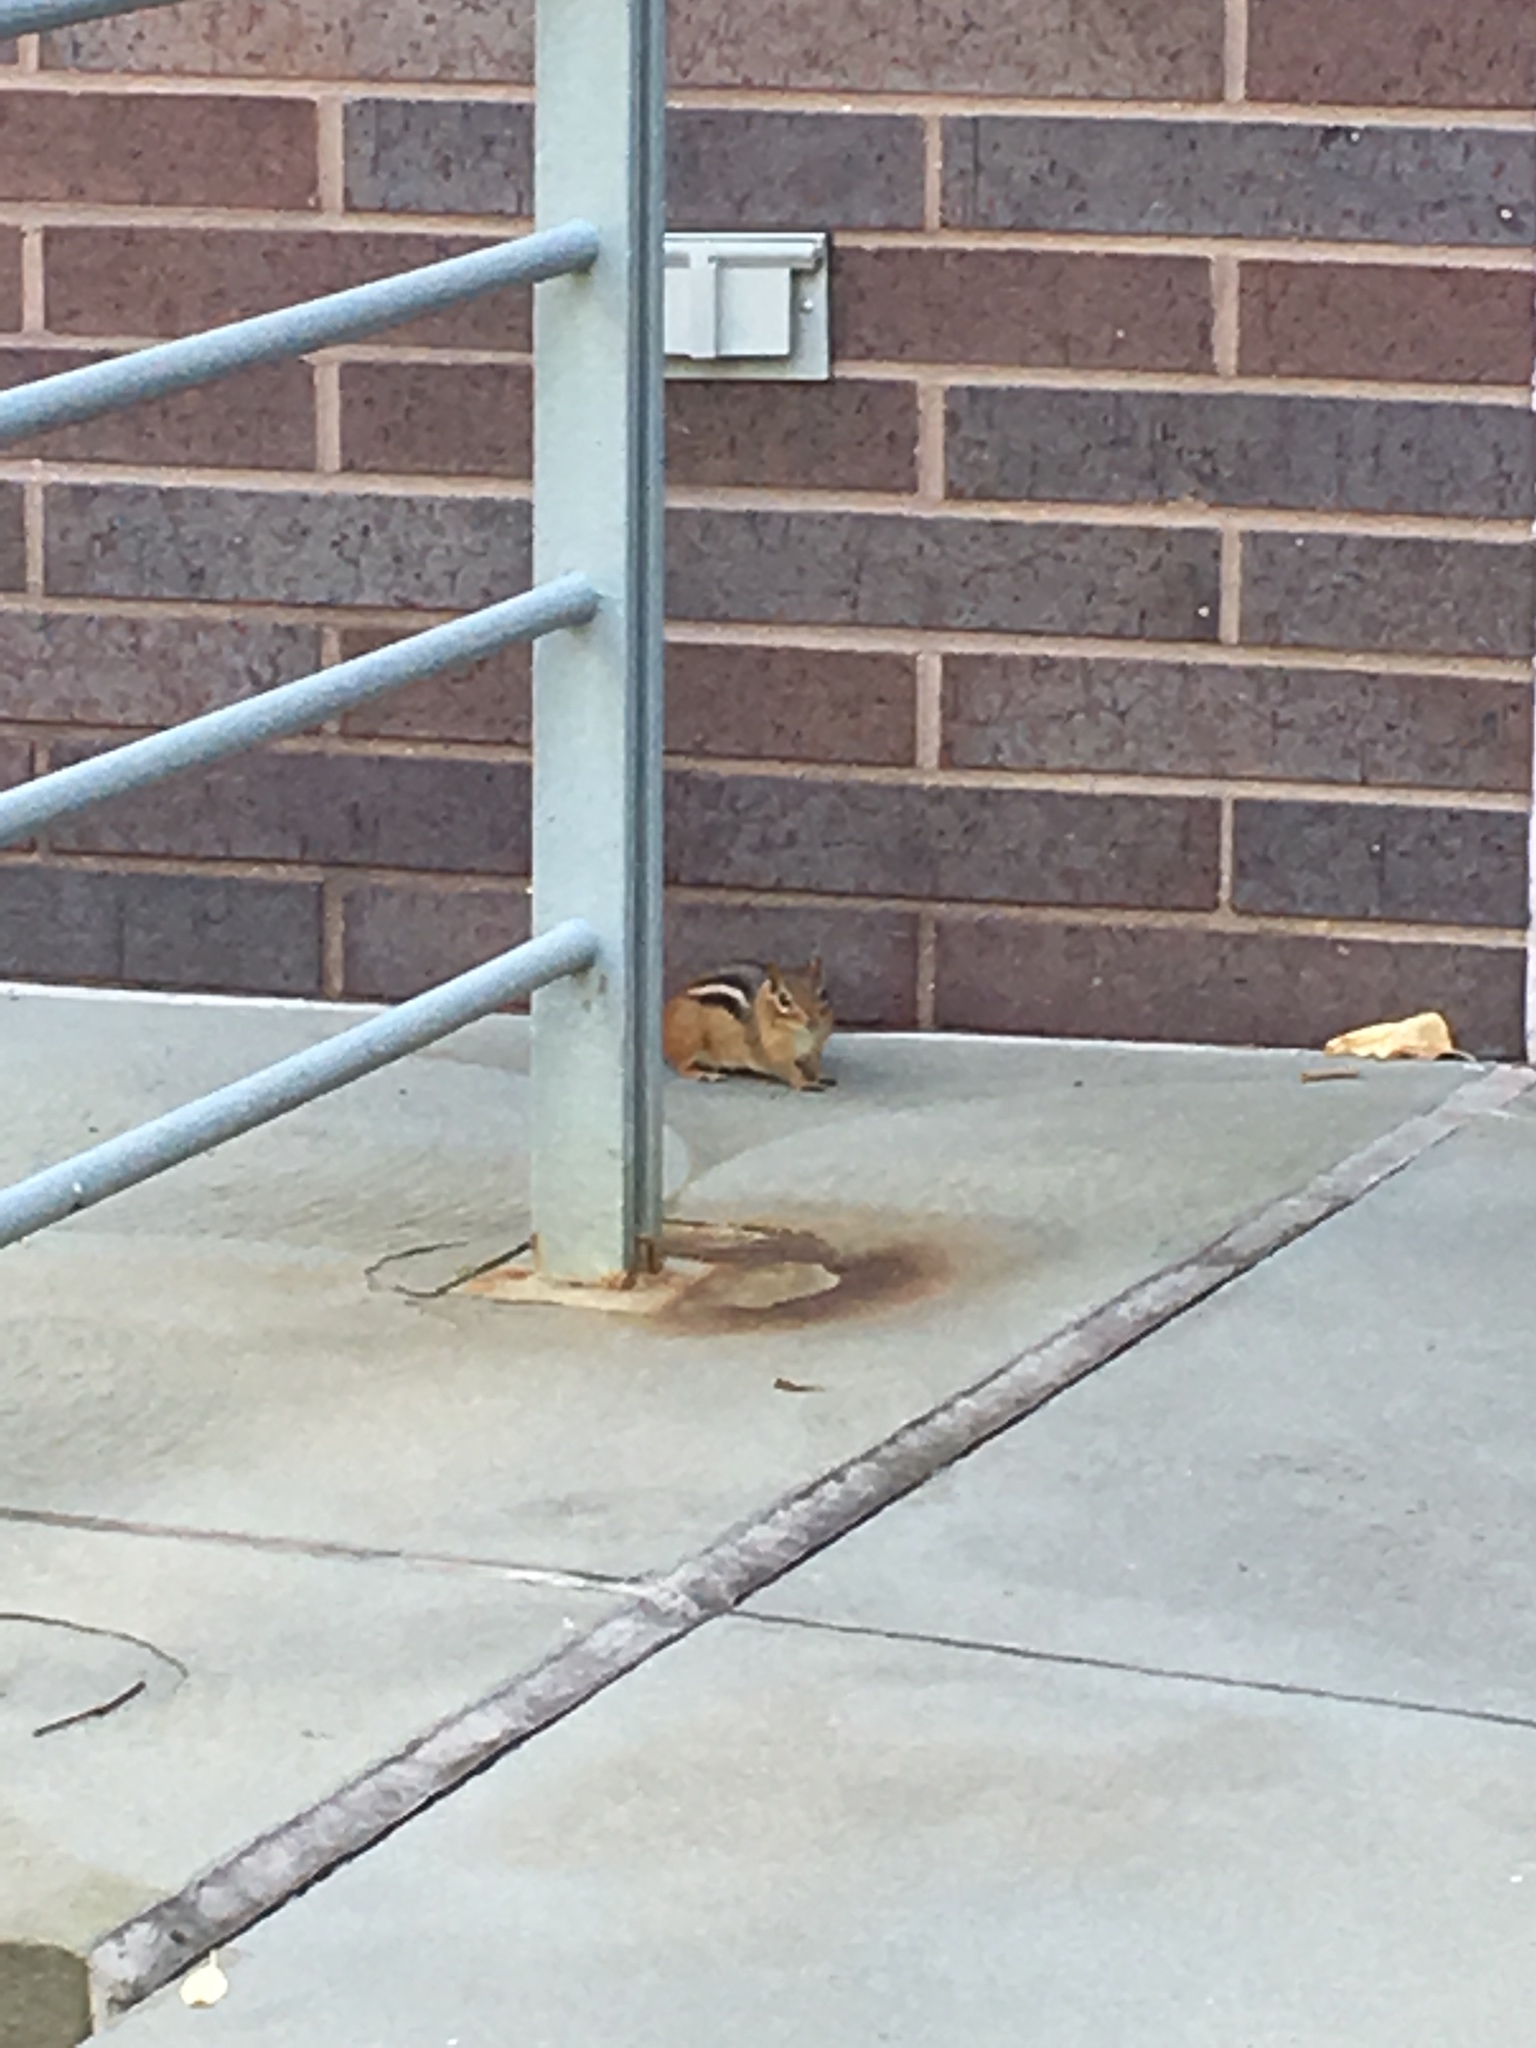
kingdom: Animalia
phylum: Chordata
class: Mammalia
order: Rodentia
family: Sciuridae
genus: Tamias
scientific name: Tamias striatus
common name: Eastern chipmunk
